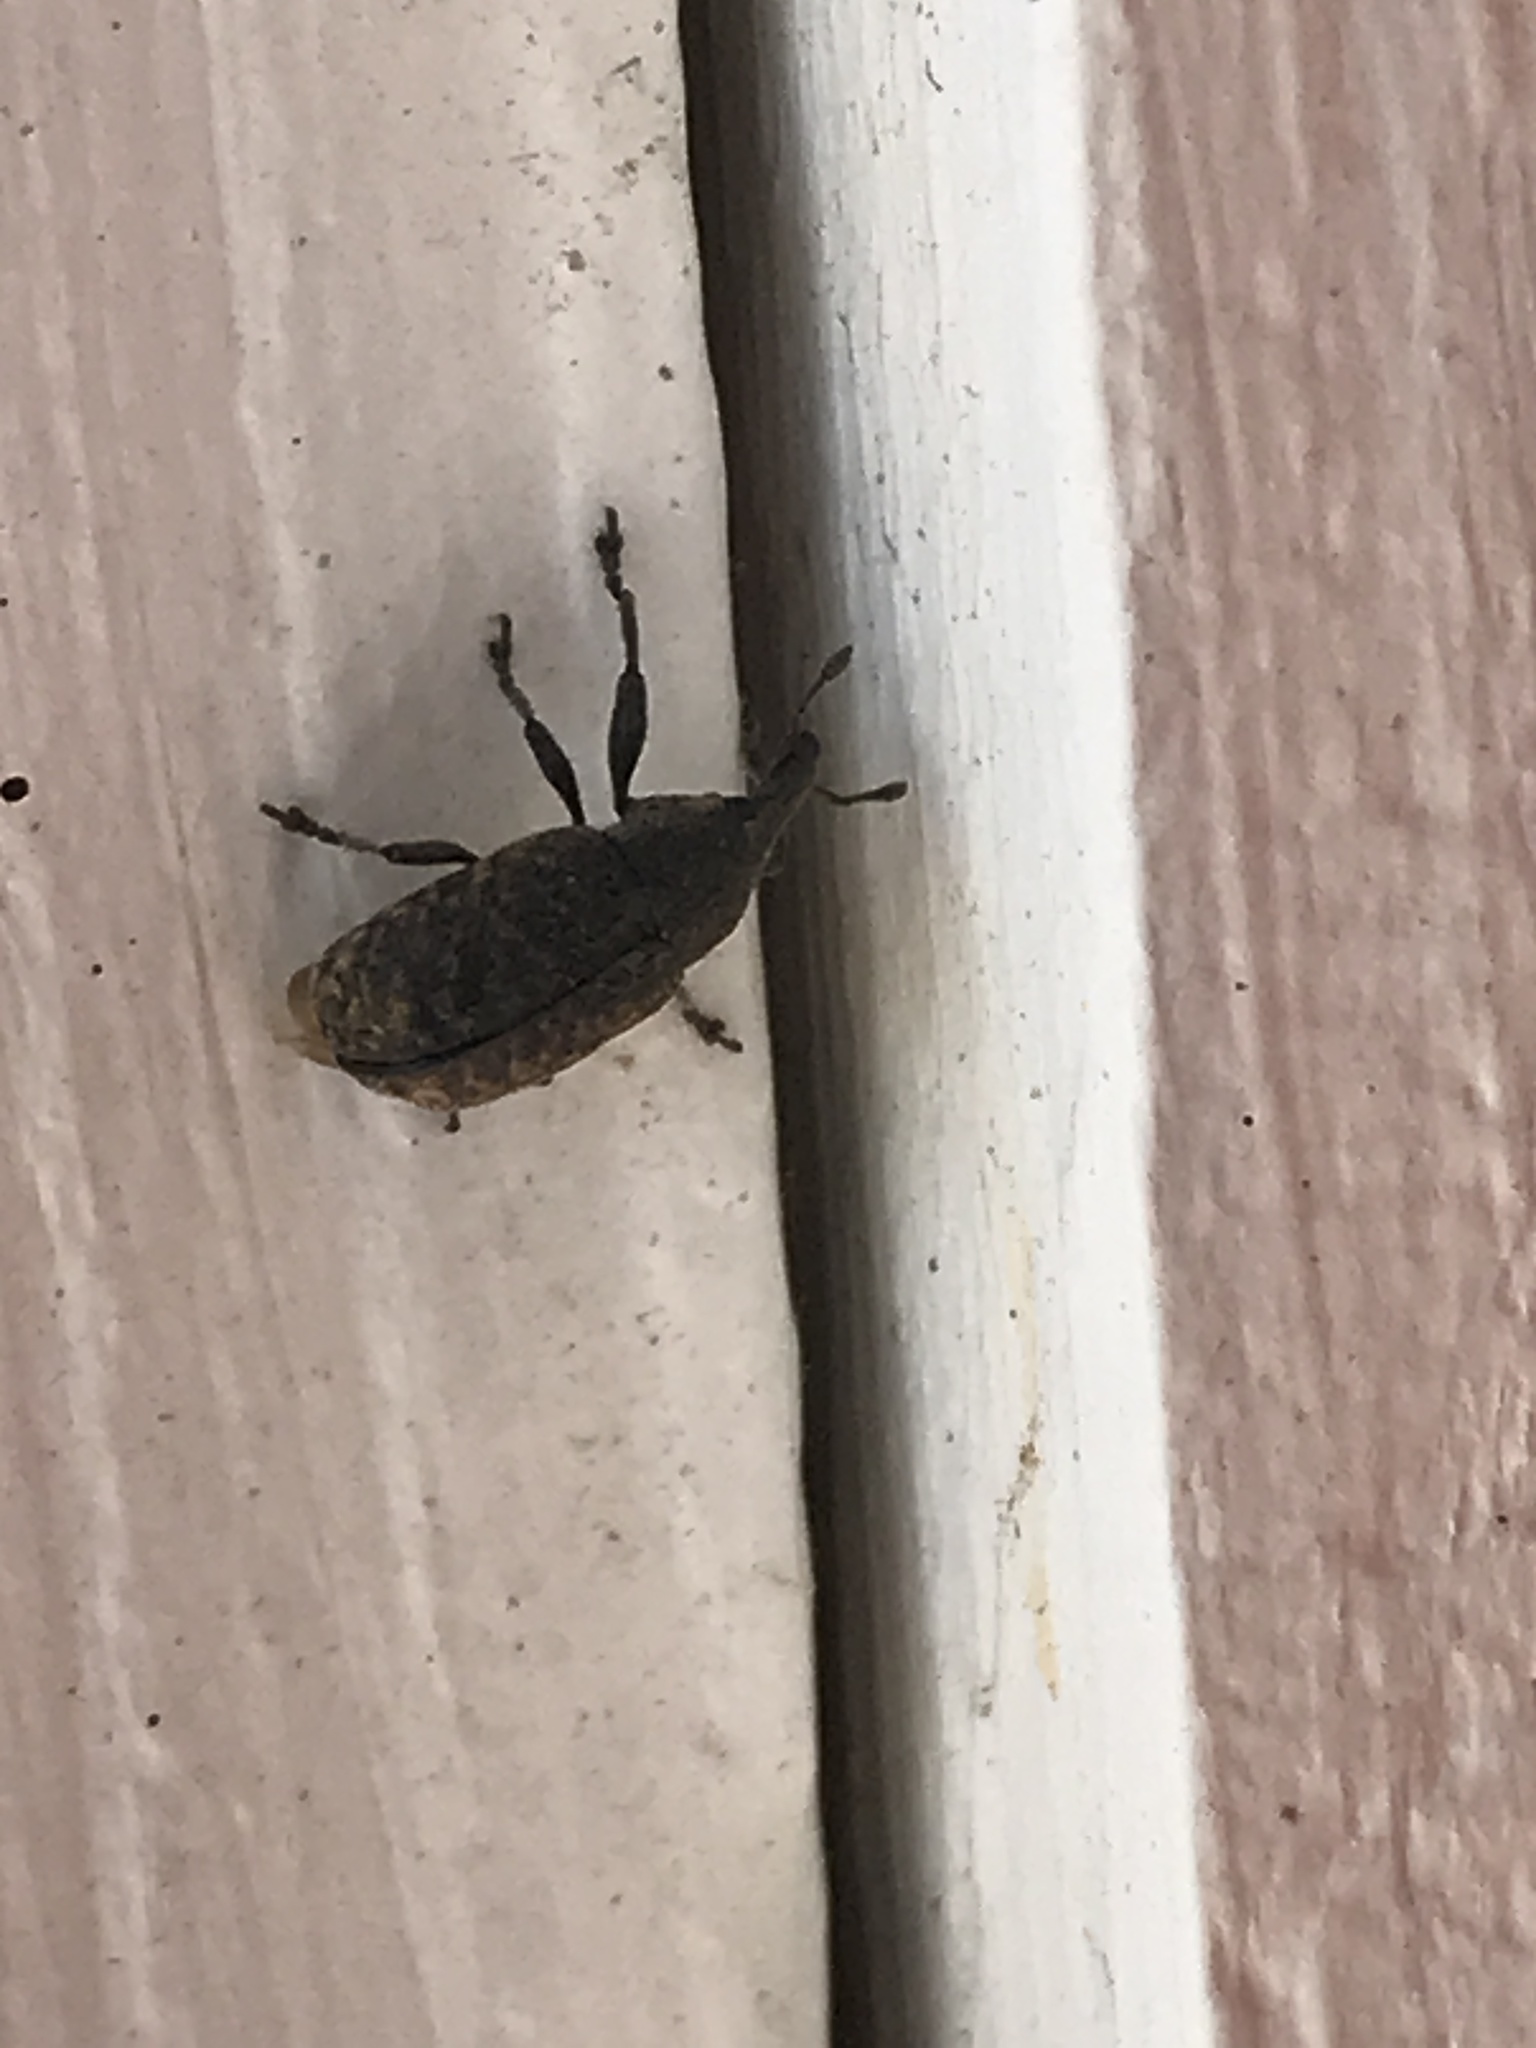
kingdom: Animalia
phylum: Arthropoda
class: Insecta
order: Coleoptera
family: Curculionidae
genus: Larinus
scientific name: Larinus carlinae
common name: Weevil
